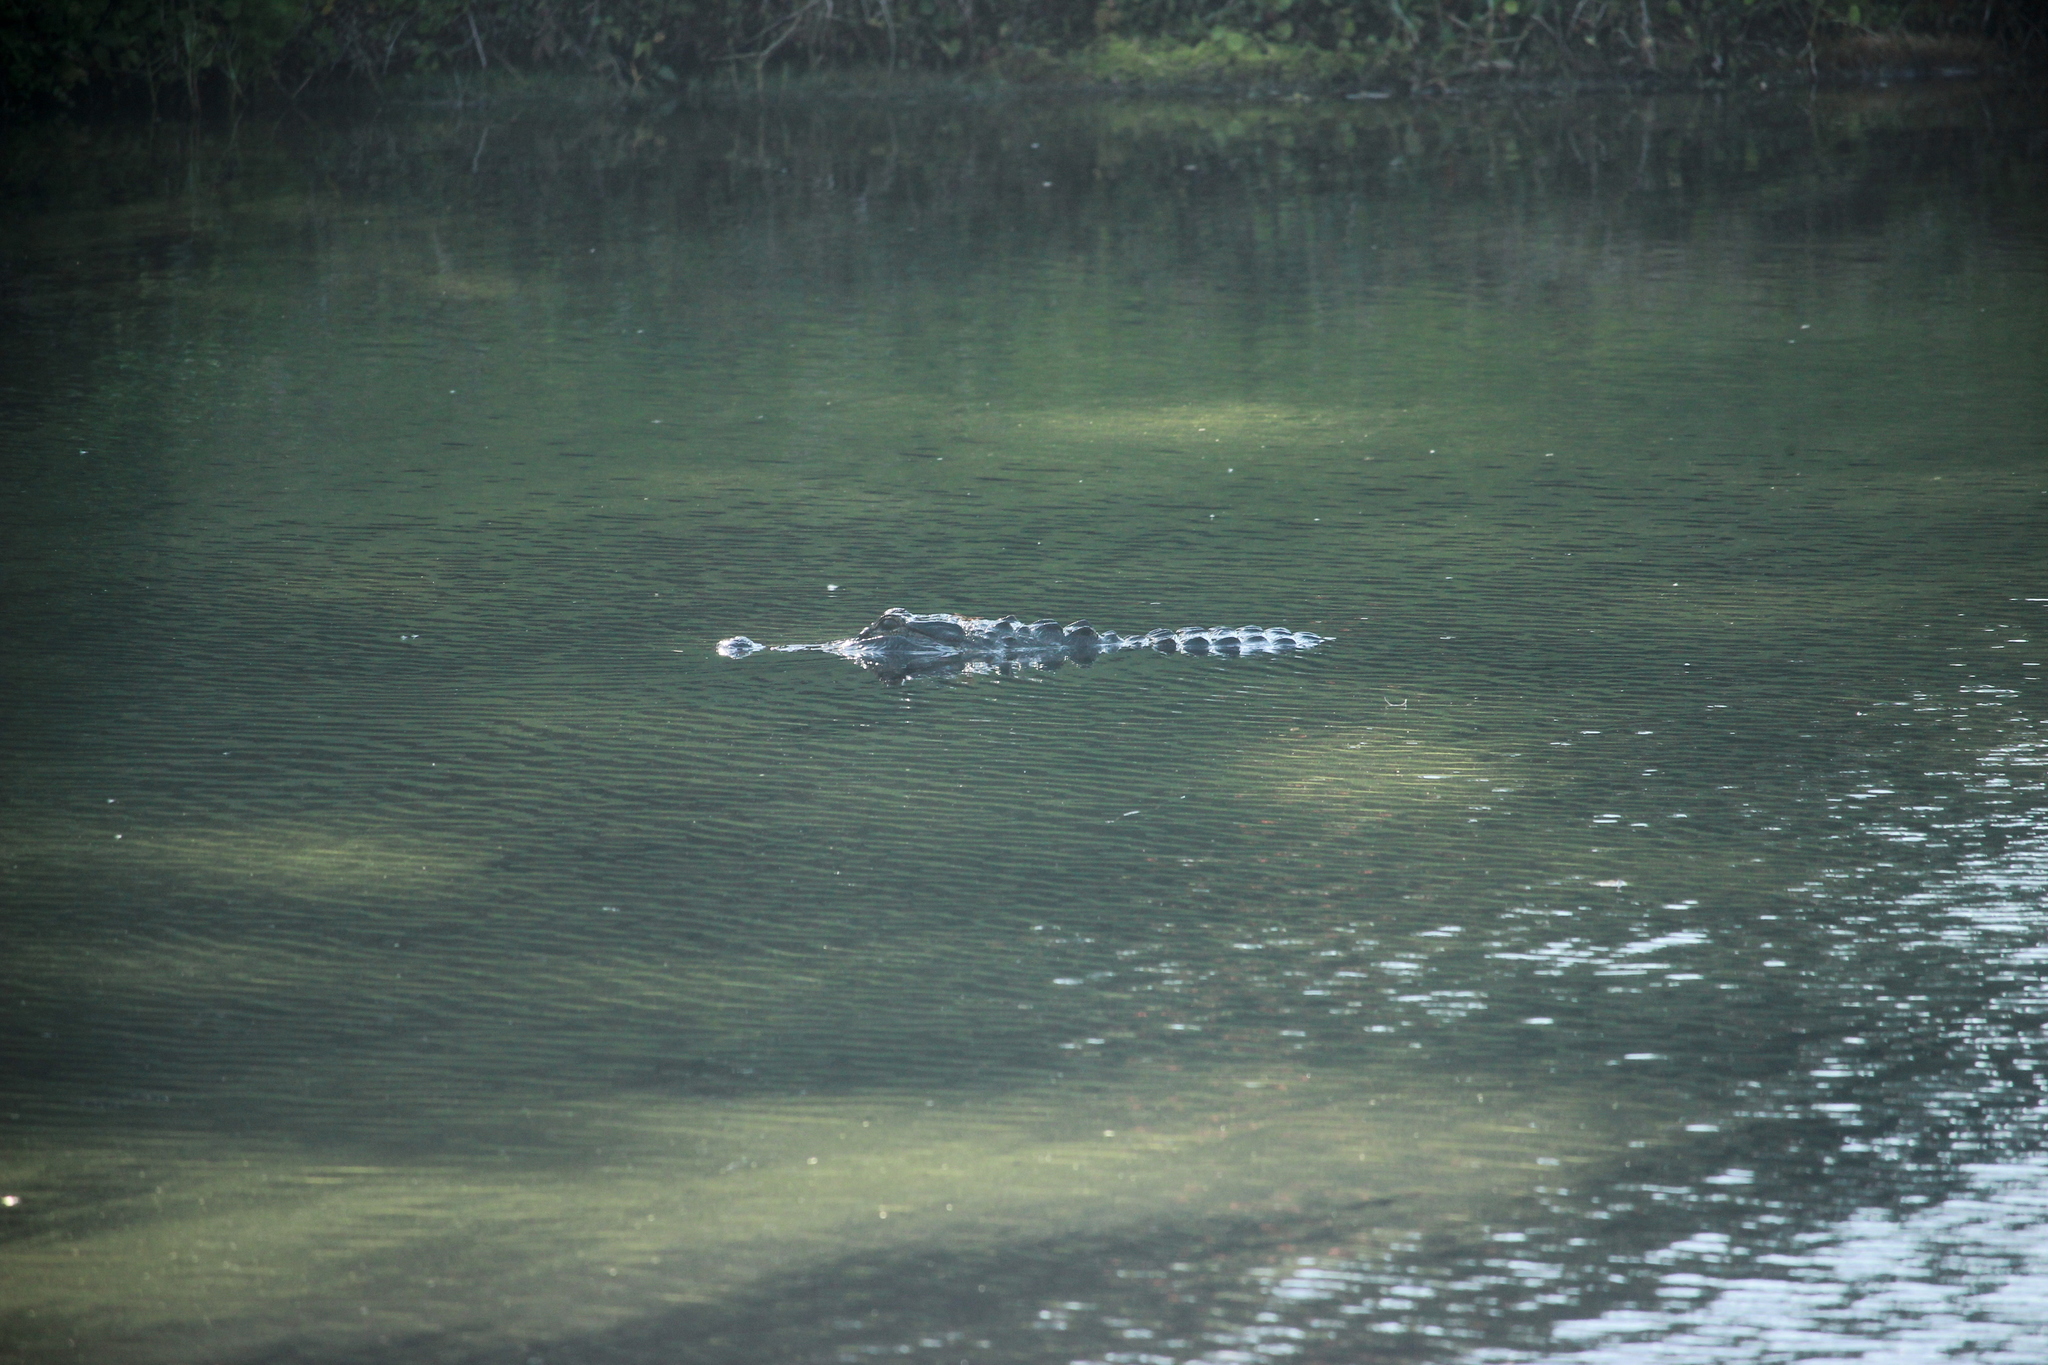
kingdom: Animalia
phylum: Chordata
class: Crocodylia
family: Alligatoridae
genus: Alligator
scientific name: Alligator mississippiensis
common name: American alligator
